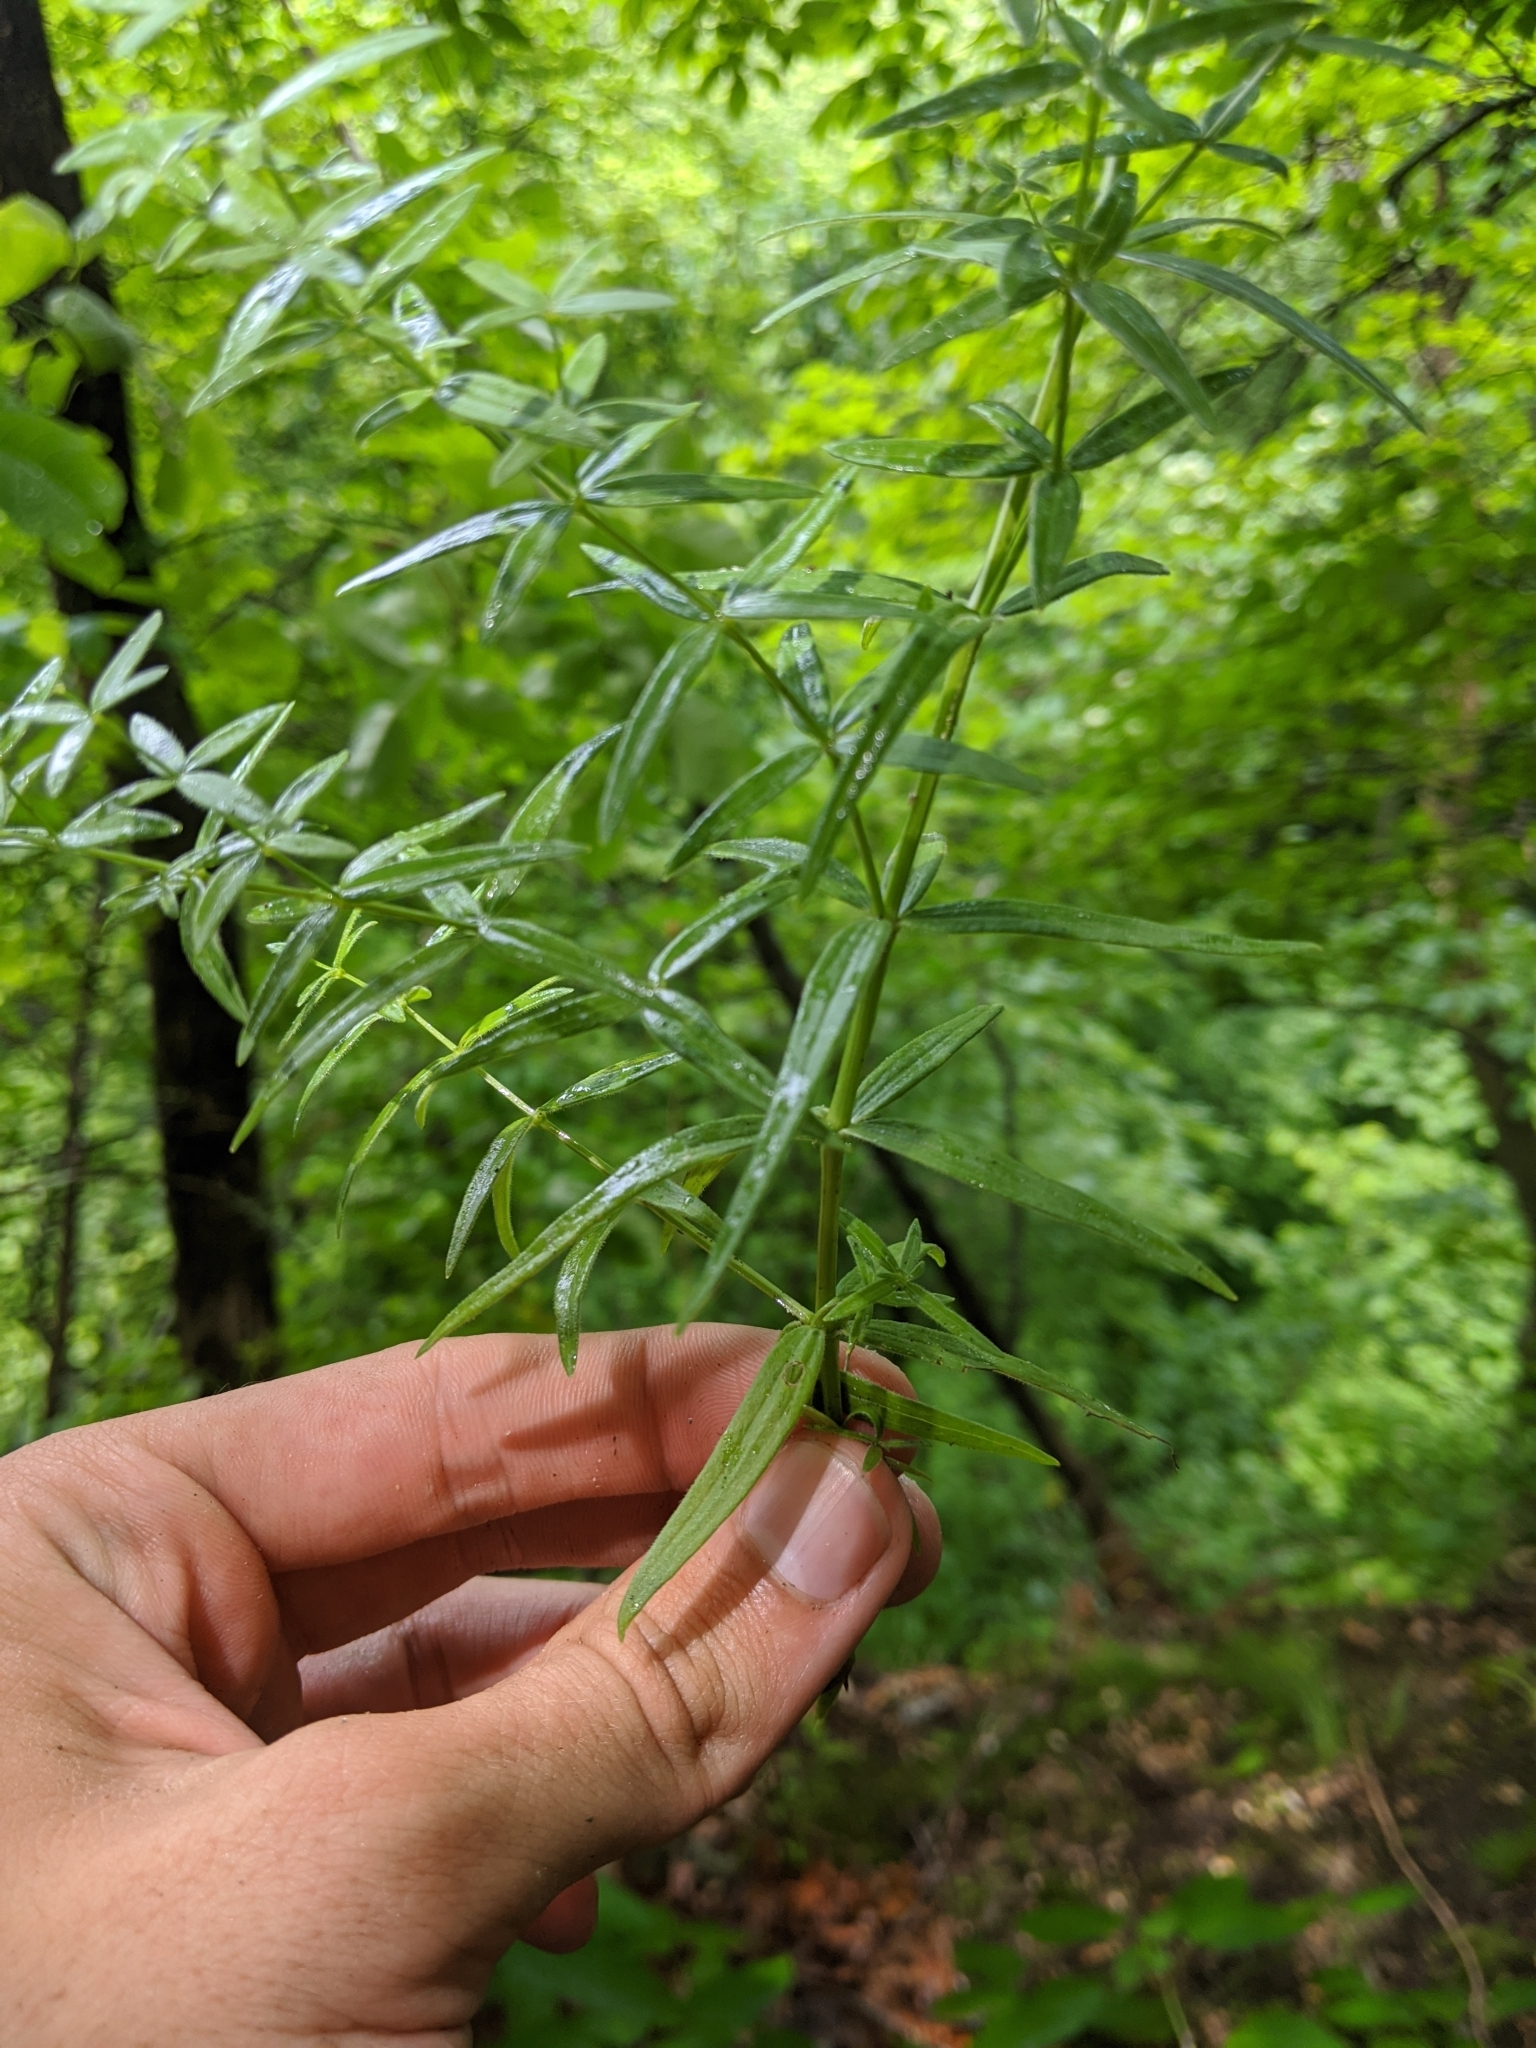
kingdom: Plantae
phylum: Tracheophyta
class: Magnoliopsida
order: Gentianales
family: Rubiaceae
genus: Galium
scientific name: Galium boreale
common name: Northern bedstraw
